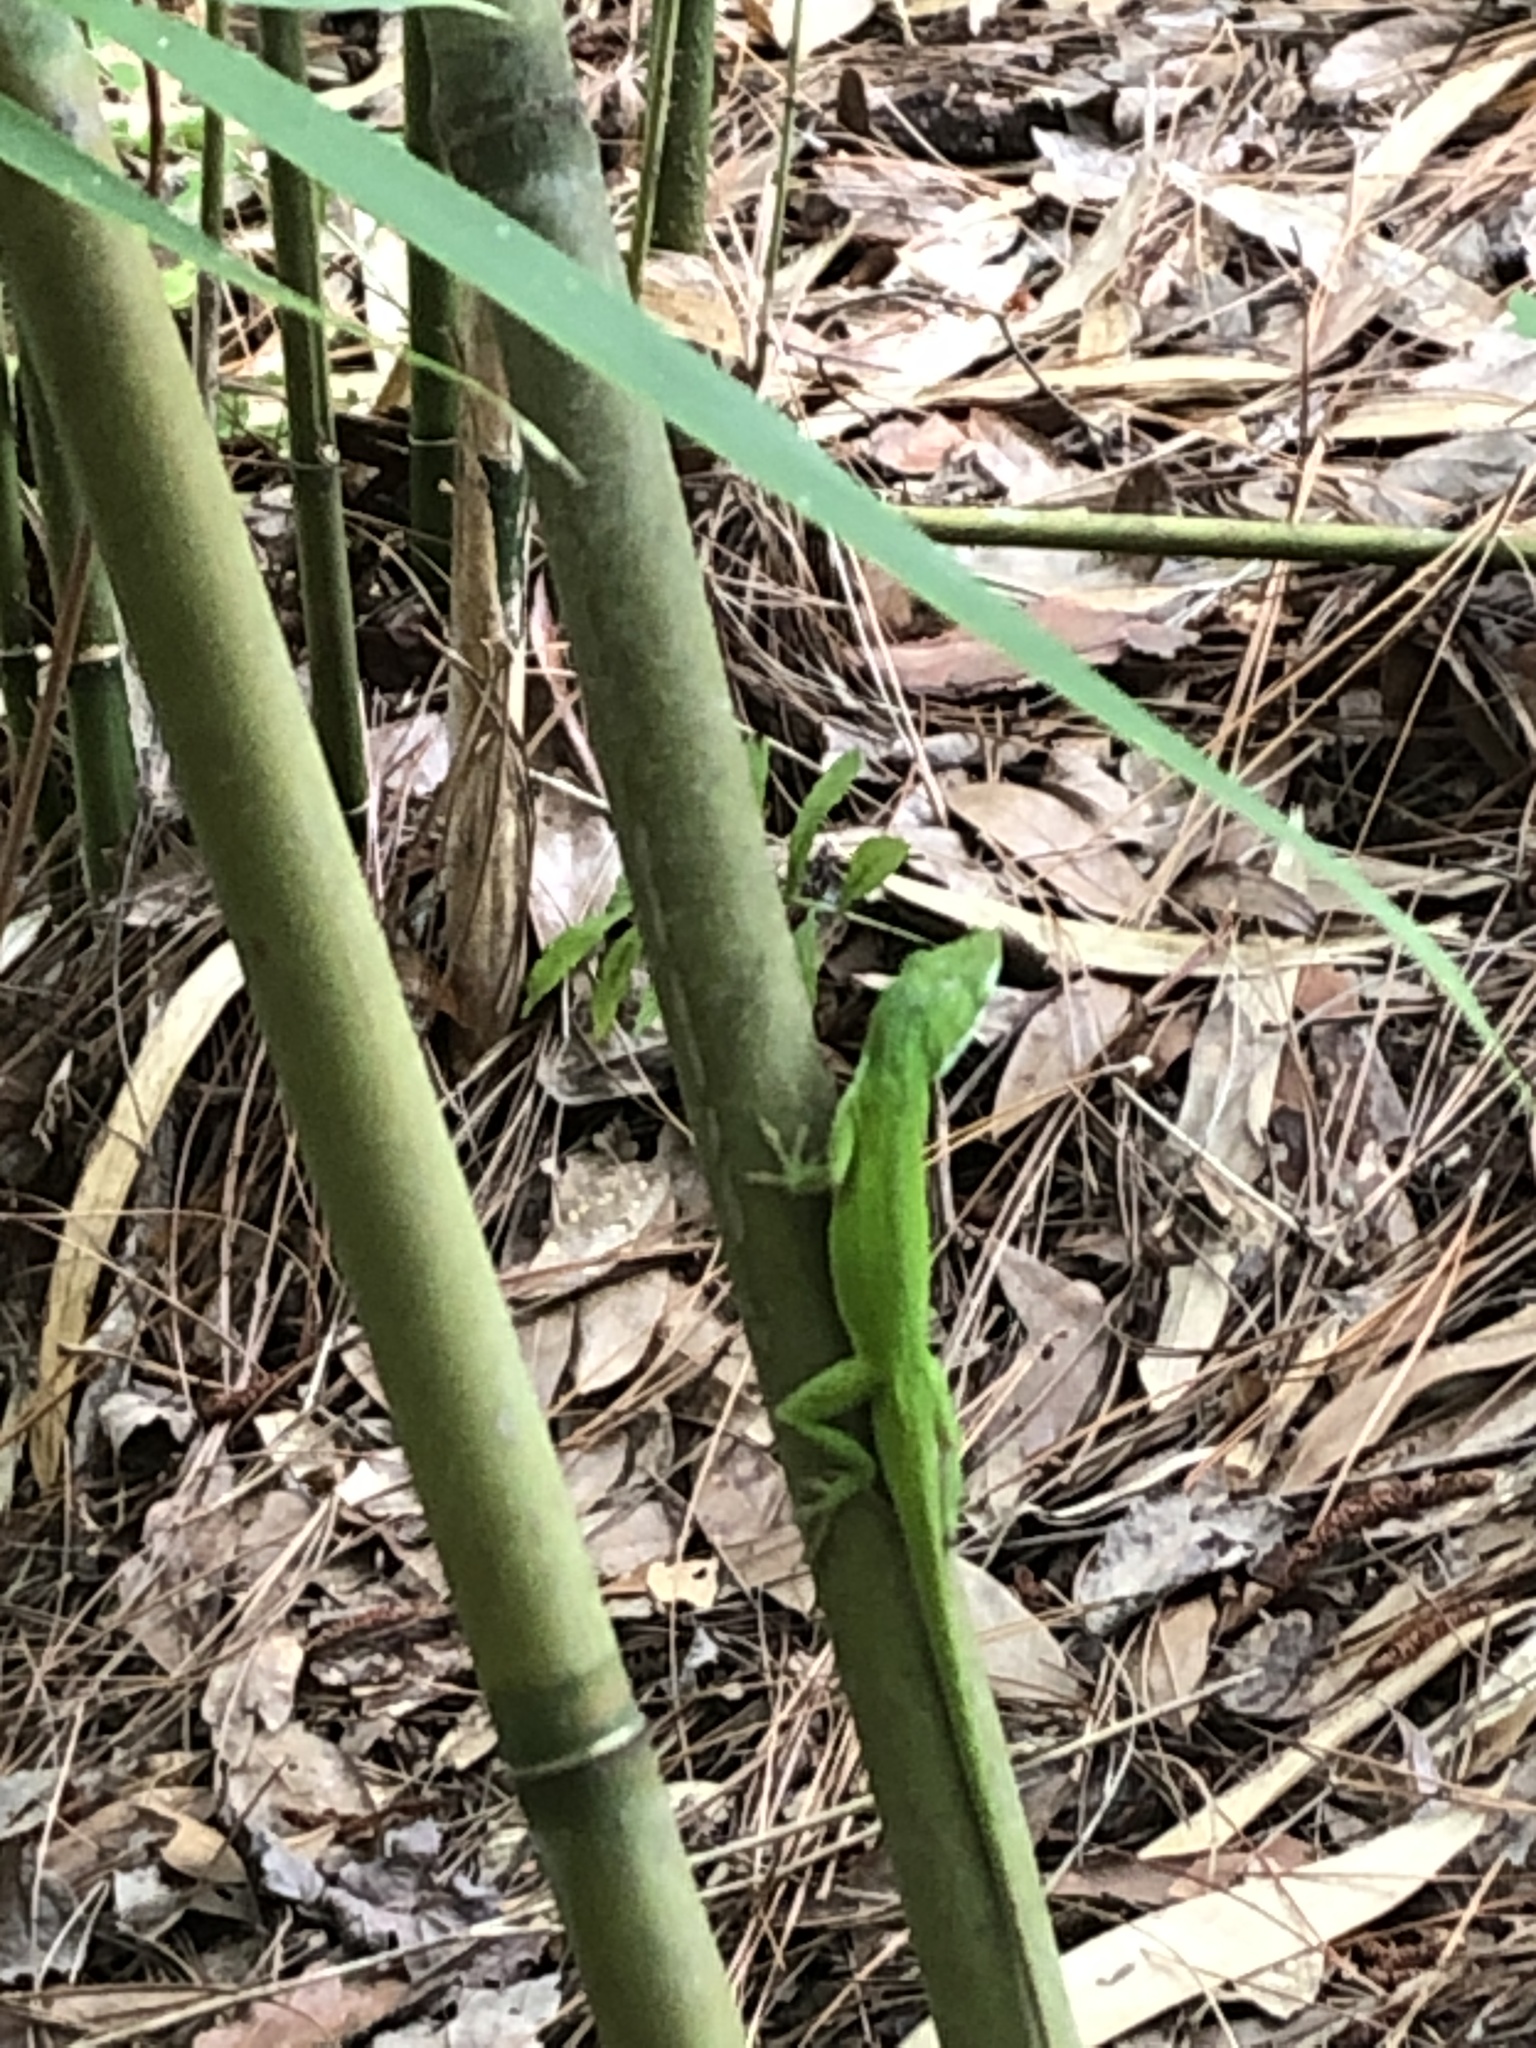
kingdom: Animalia
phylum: Chordata
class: Squamata
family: Dactyloidae
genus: Anolis
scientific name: Anolis carolinensis
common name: Green anole
